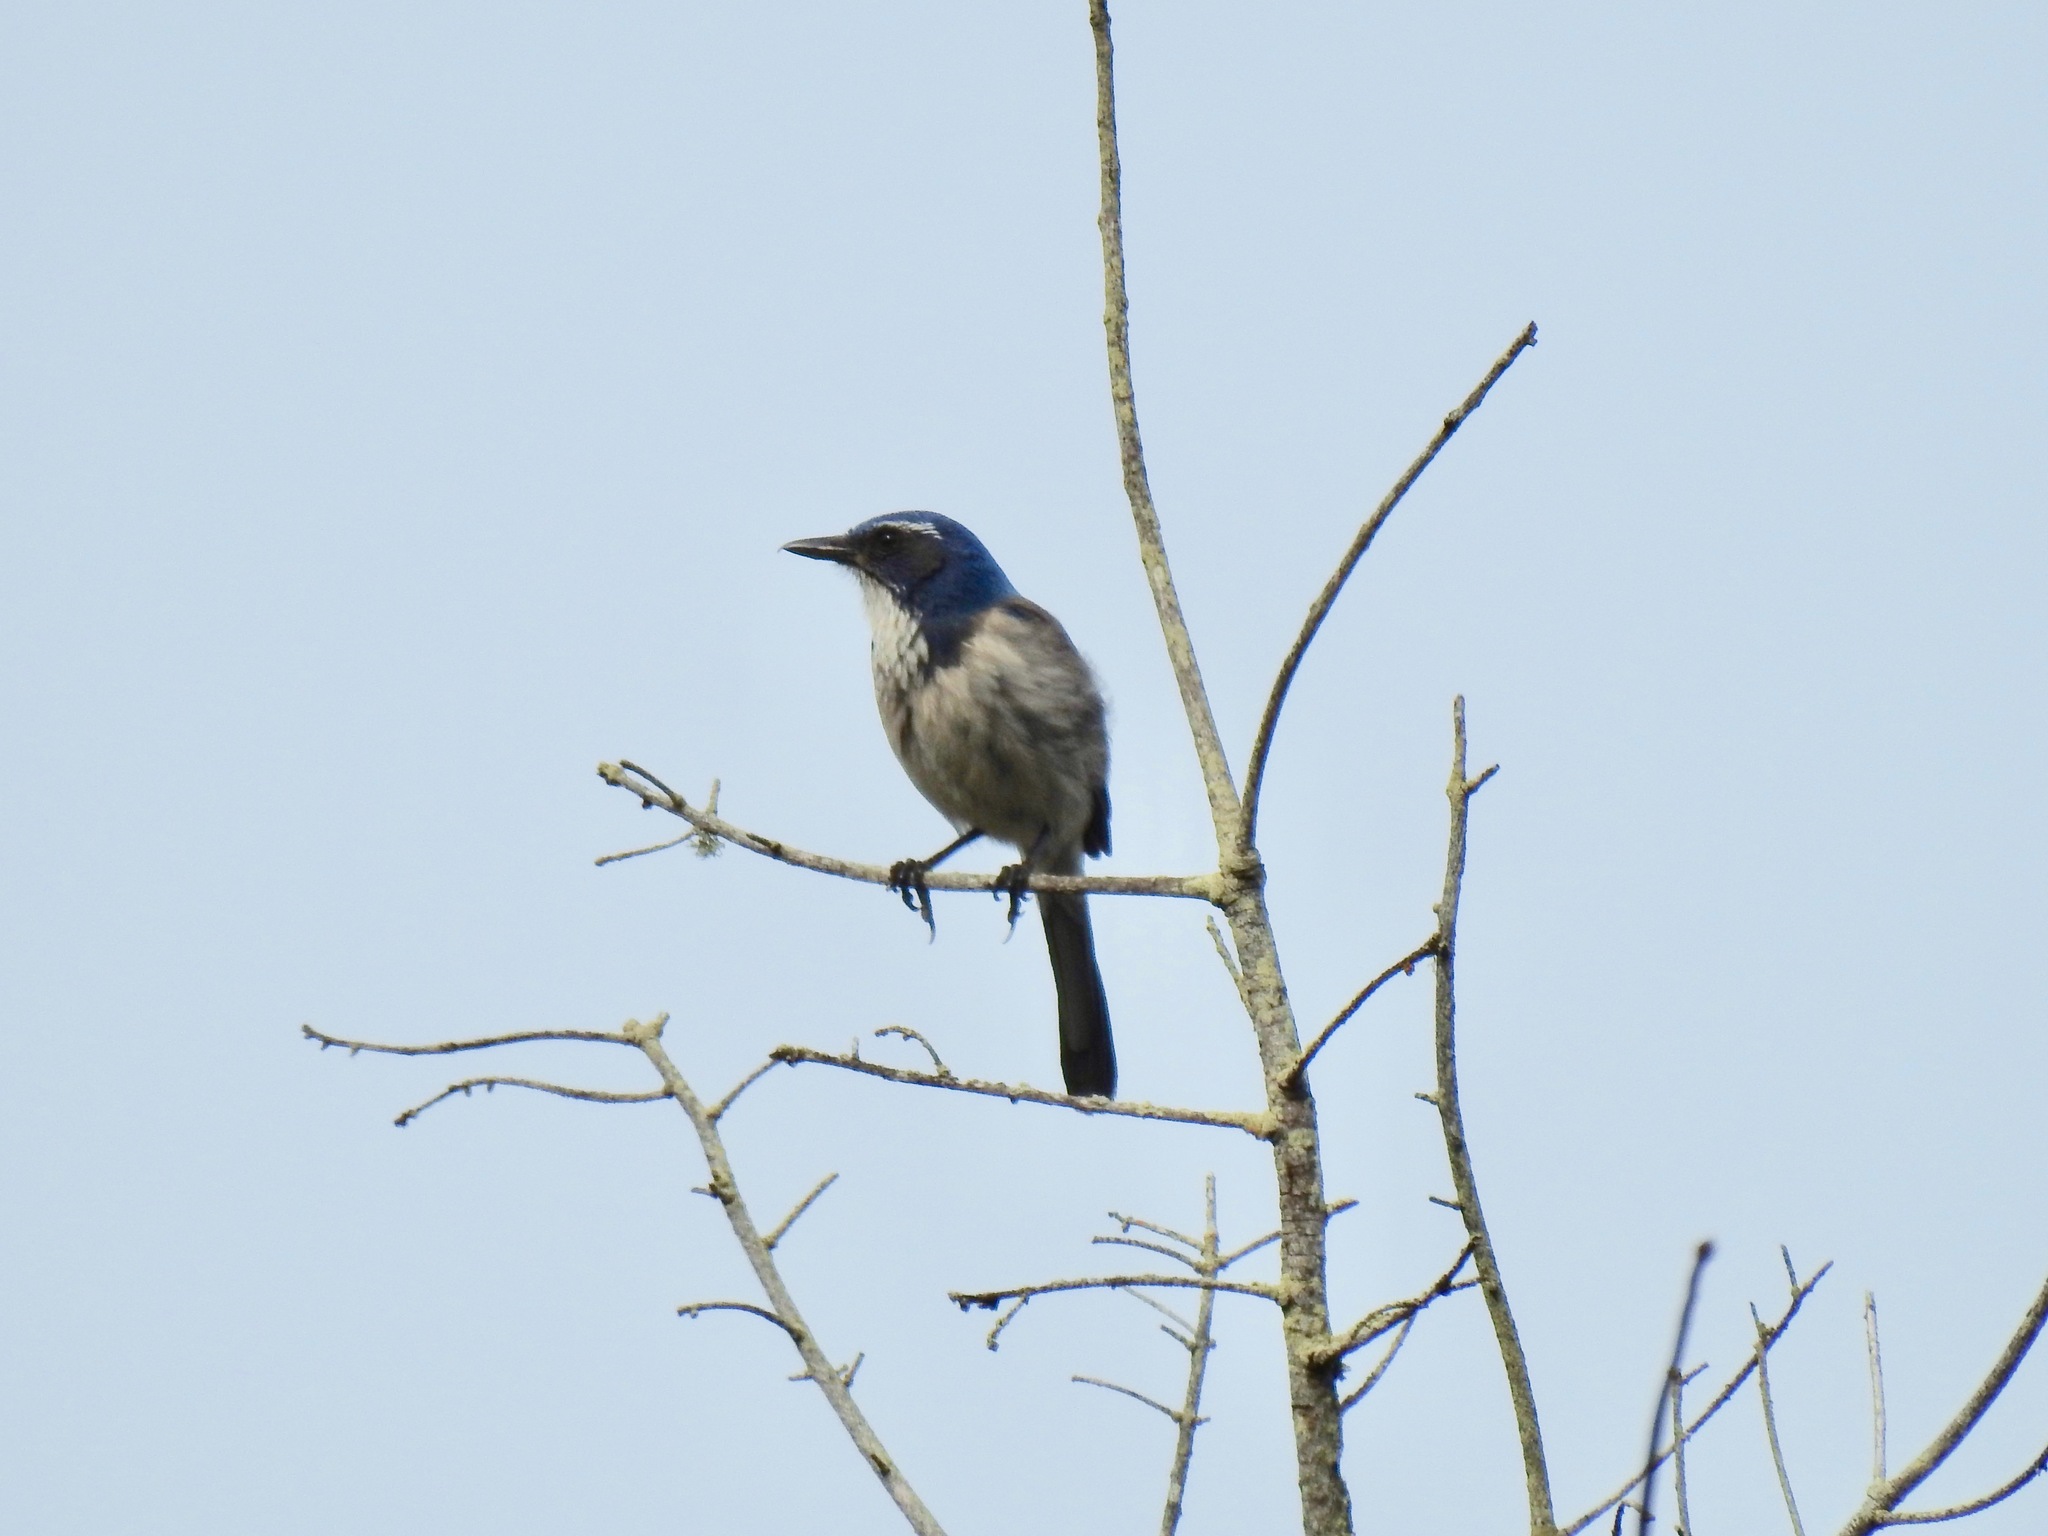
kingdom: Animalia
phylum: Chordata
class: Aves
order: Passeriformes
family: Corvidae
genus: Aphelocoma
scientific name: Aphelocoma californica
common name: California scrub-jay
